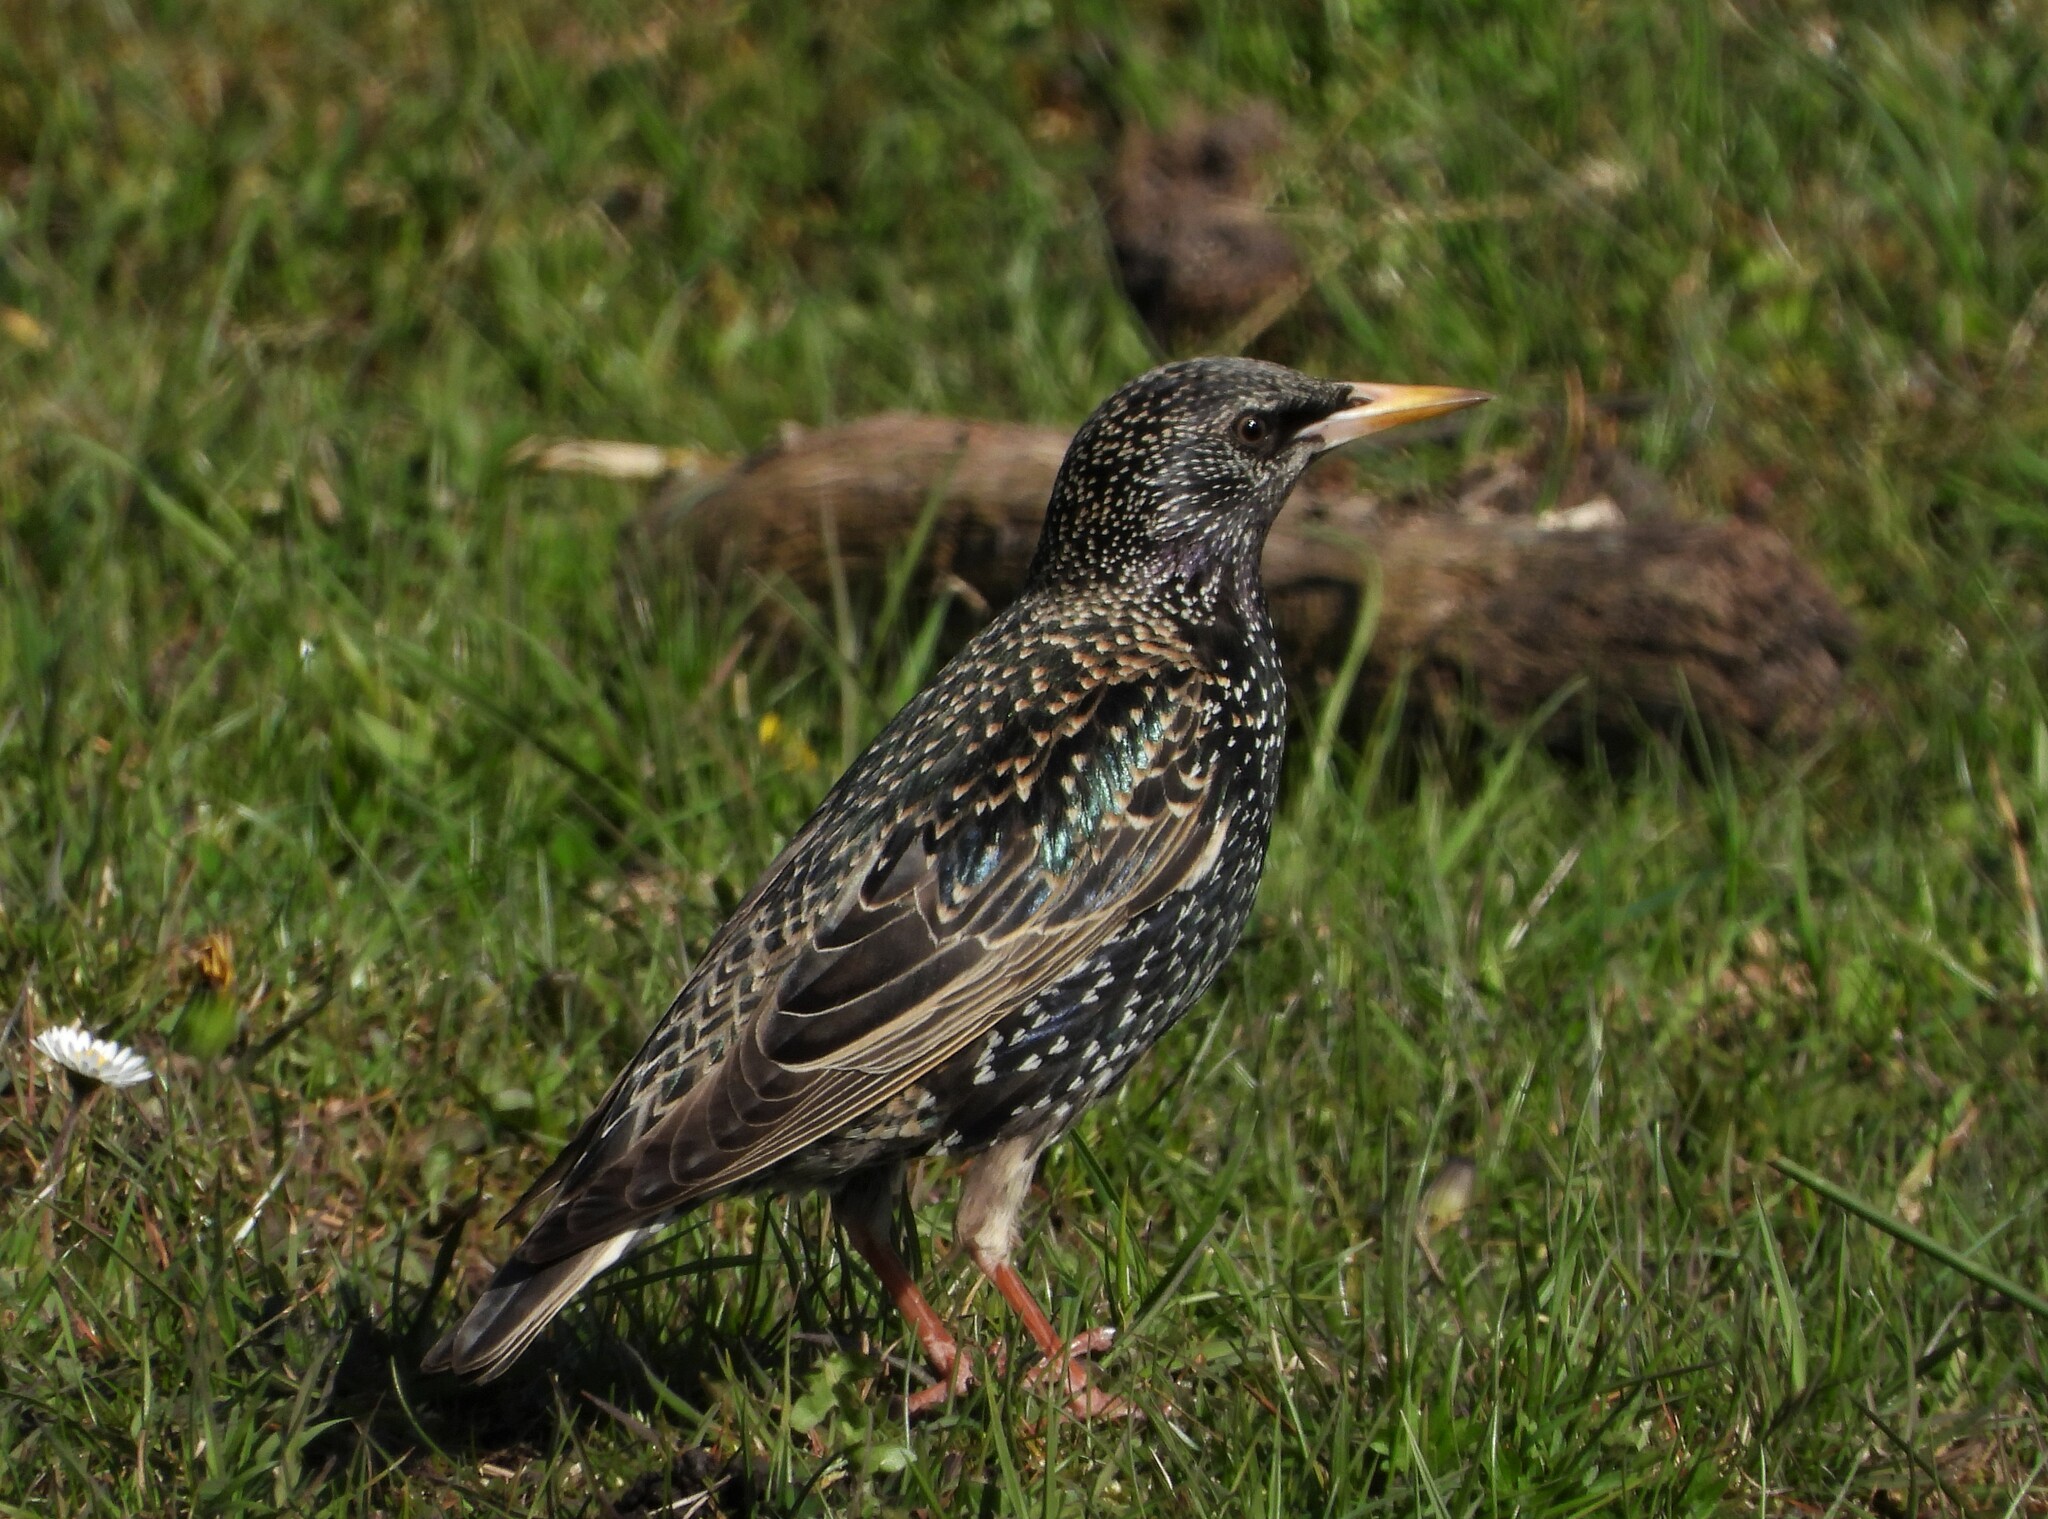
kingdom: Animalia
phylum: Chordata
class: Aves
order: Passeriformes
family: Sturnidae
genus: Sturnus
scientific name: Sturnus vulgaris
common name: Common starling
